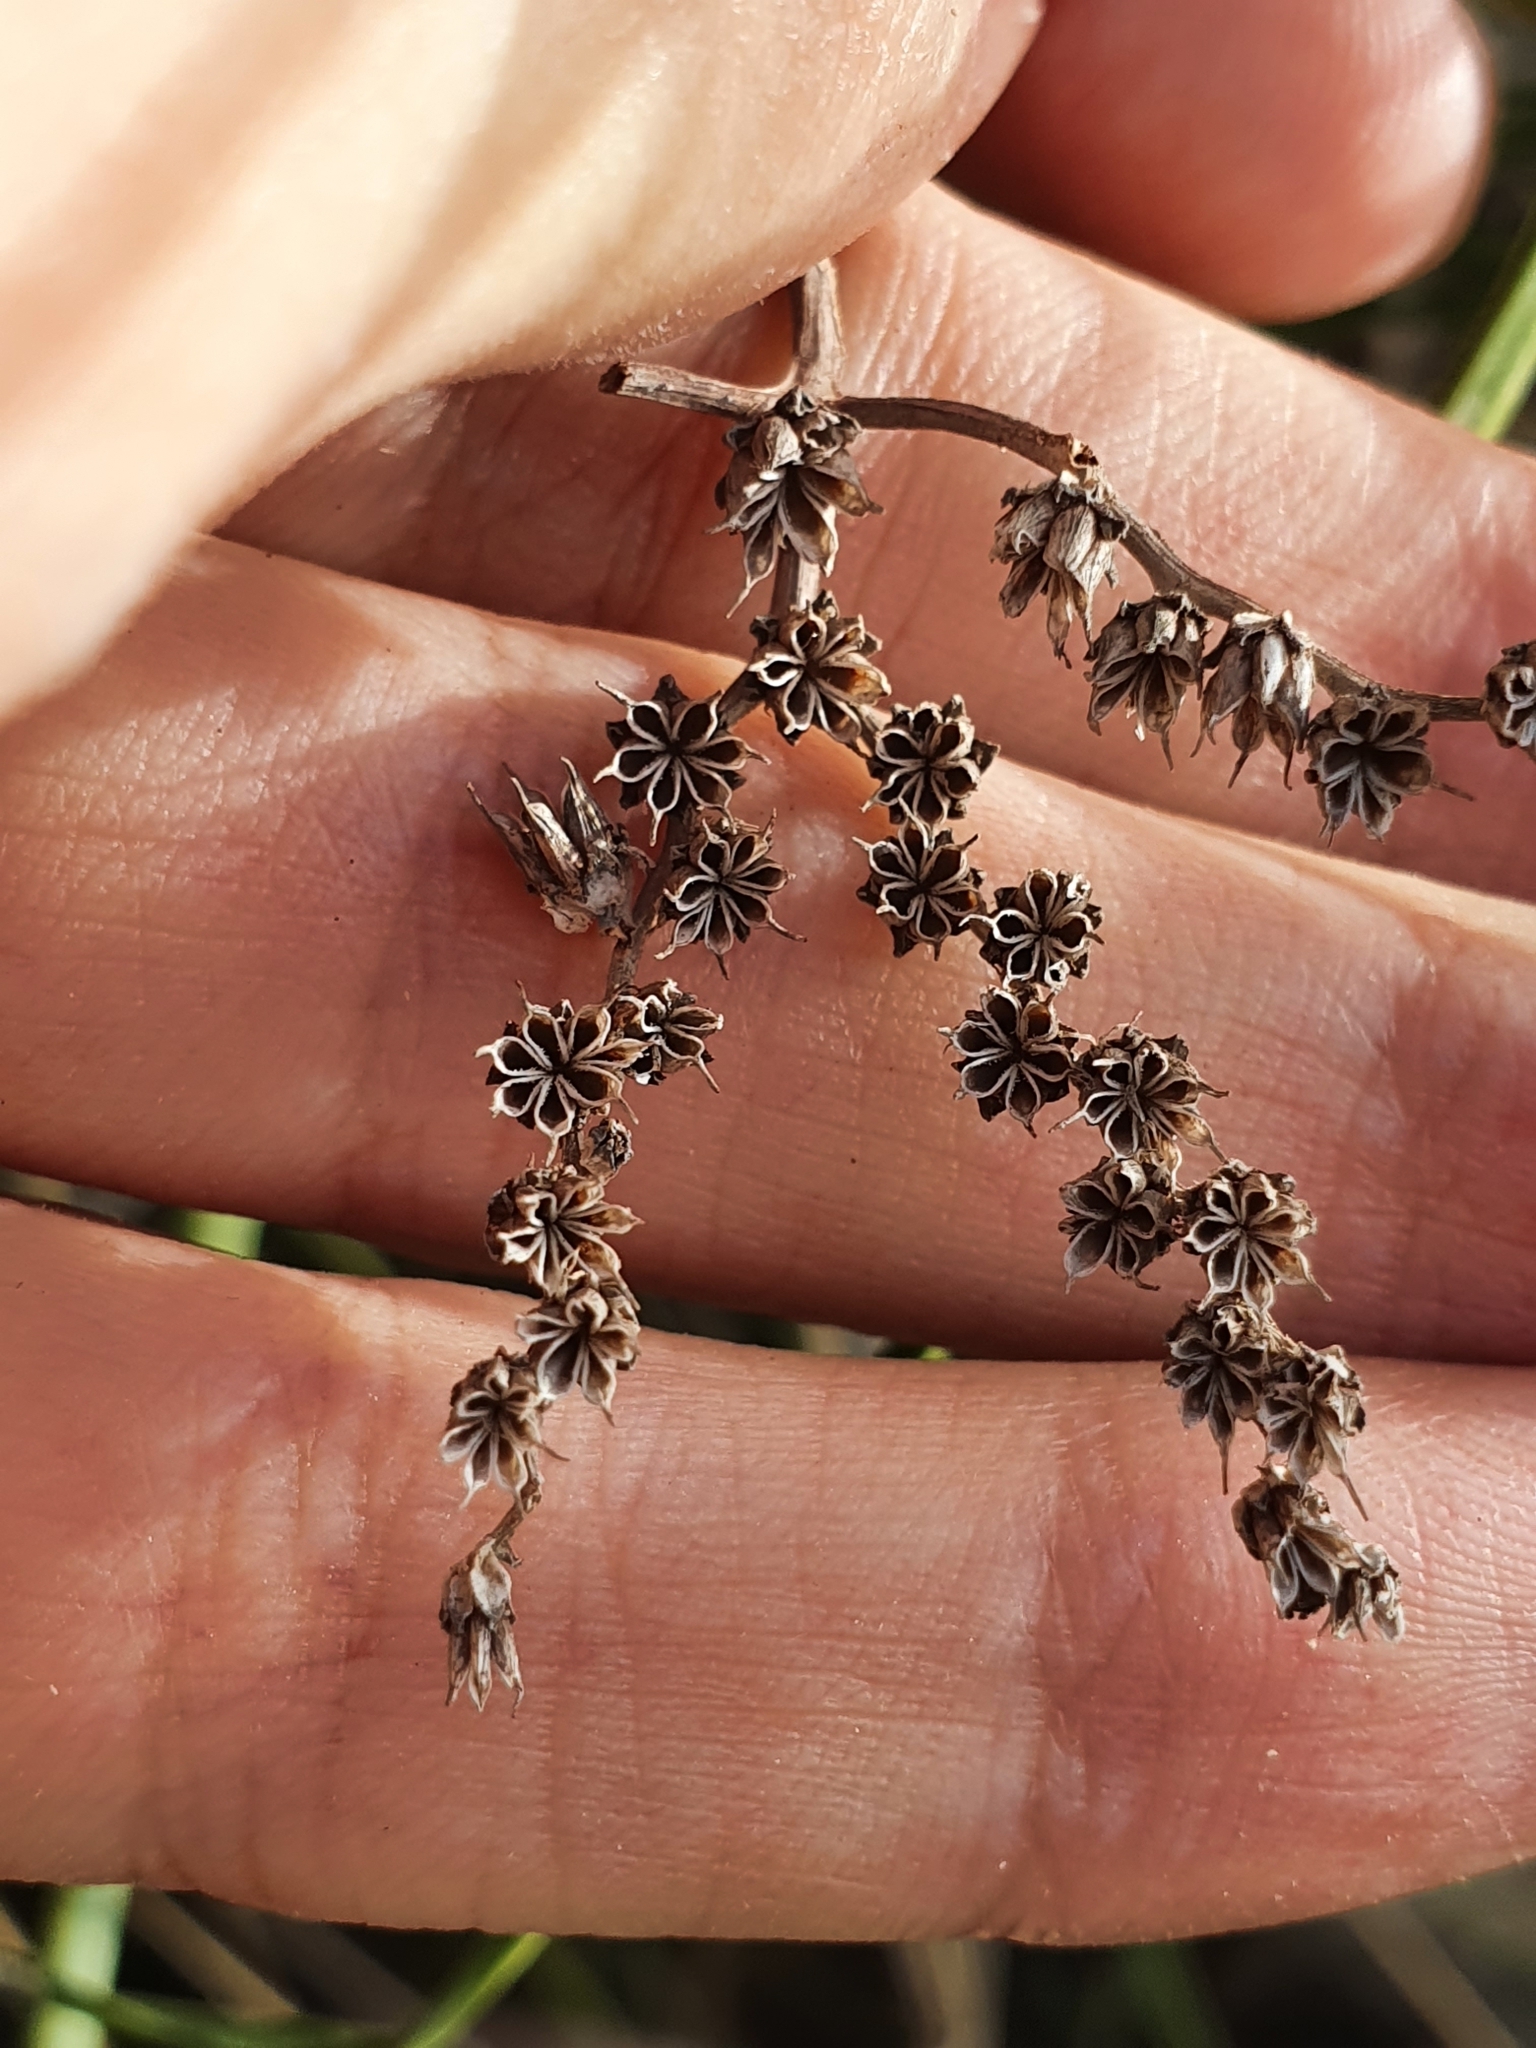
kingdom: Plantae
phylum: Tracheophyta
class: Magnoliopsida
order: Saxifragales
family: Crassulaceae
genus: Petrosedum
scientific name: Petrosedum sediforme
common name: Pale stonecrop
